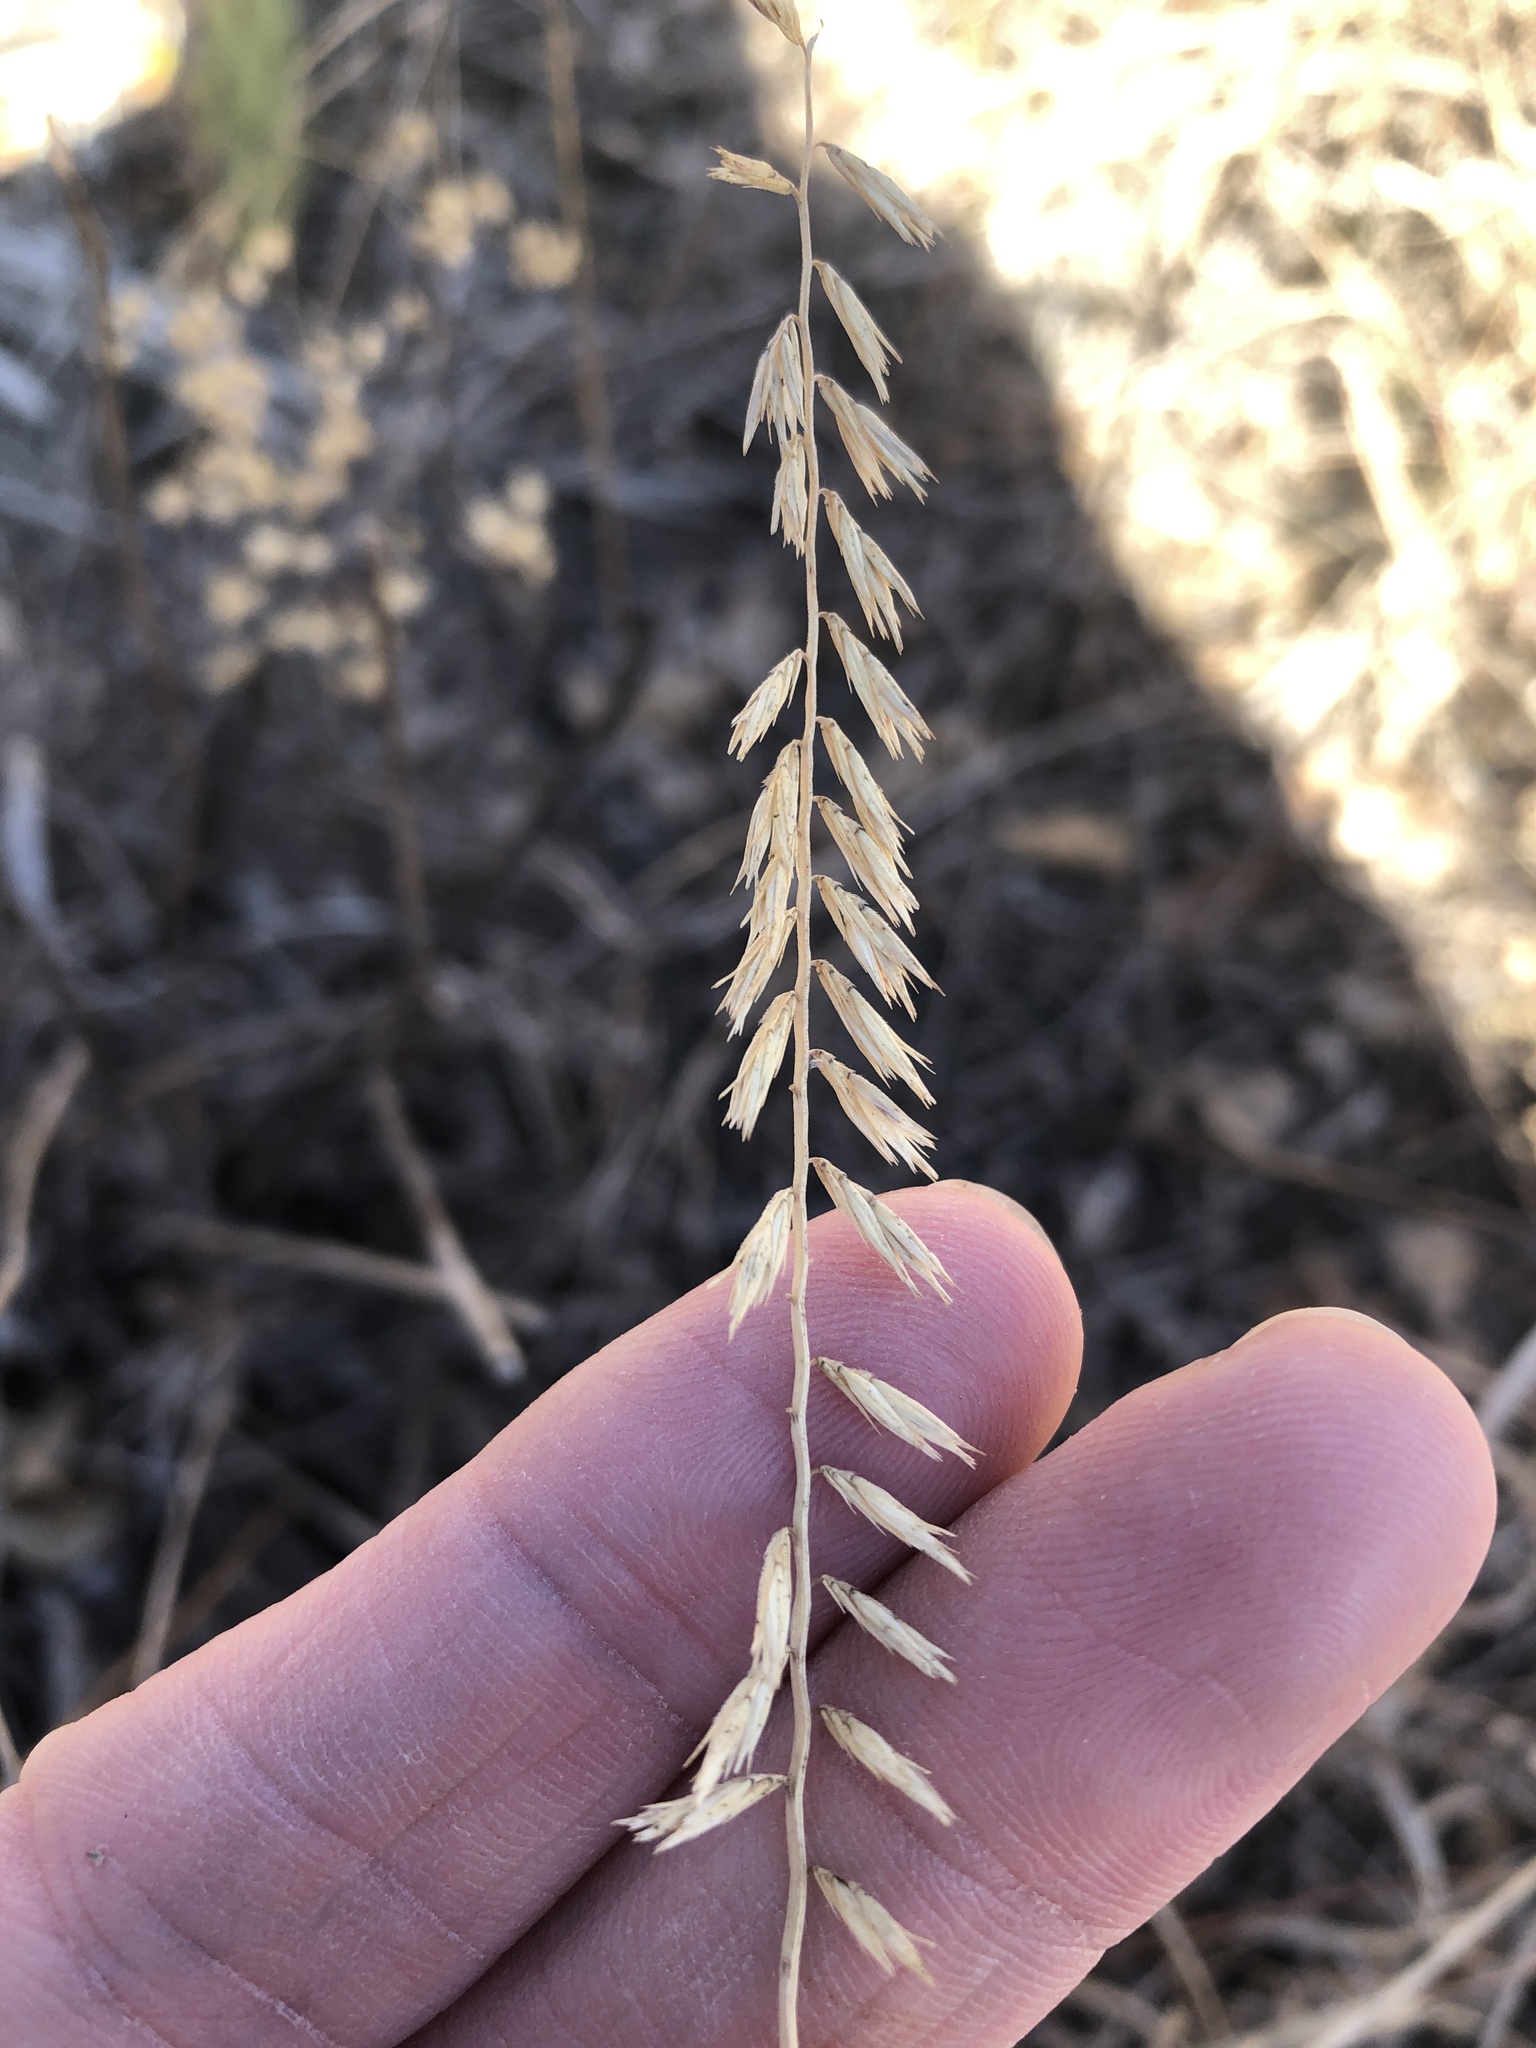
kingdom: Plantae
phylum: Tracheophyta
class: Liliopsida
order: Poales
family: Poaceae
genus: Bouteloua
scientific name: Bouteloua curtipendula
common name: Side-oats grama
